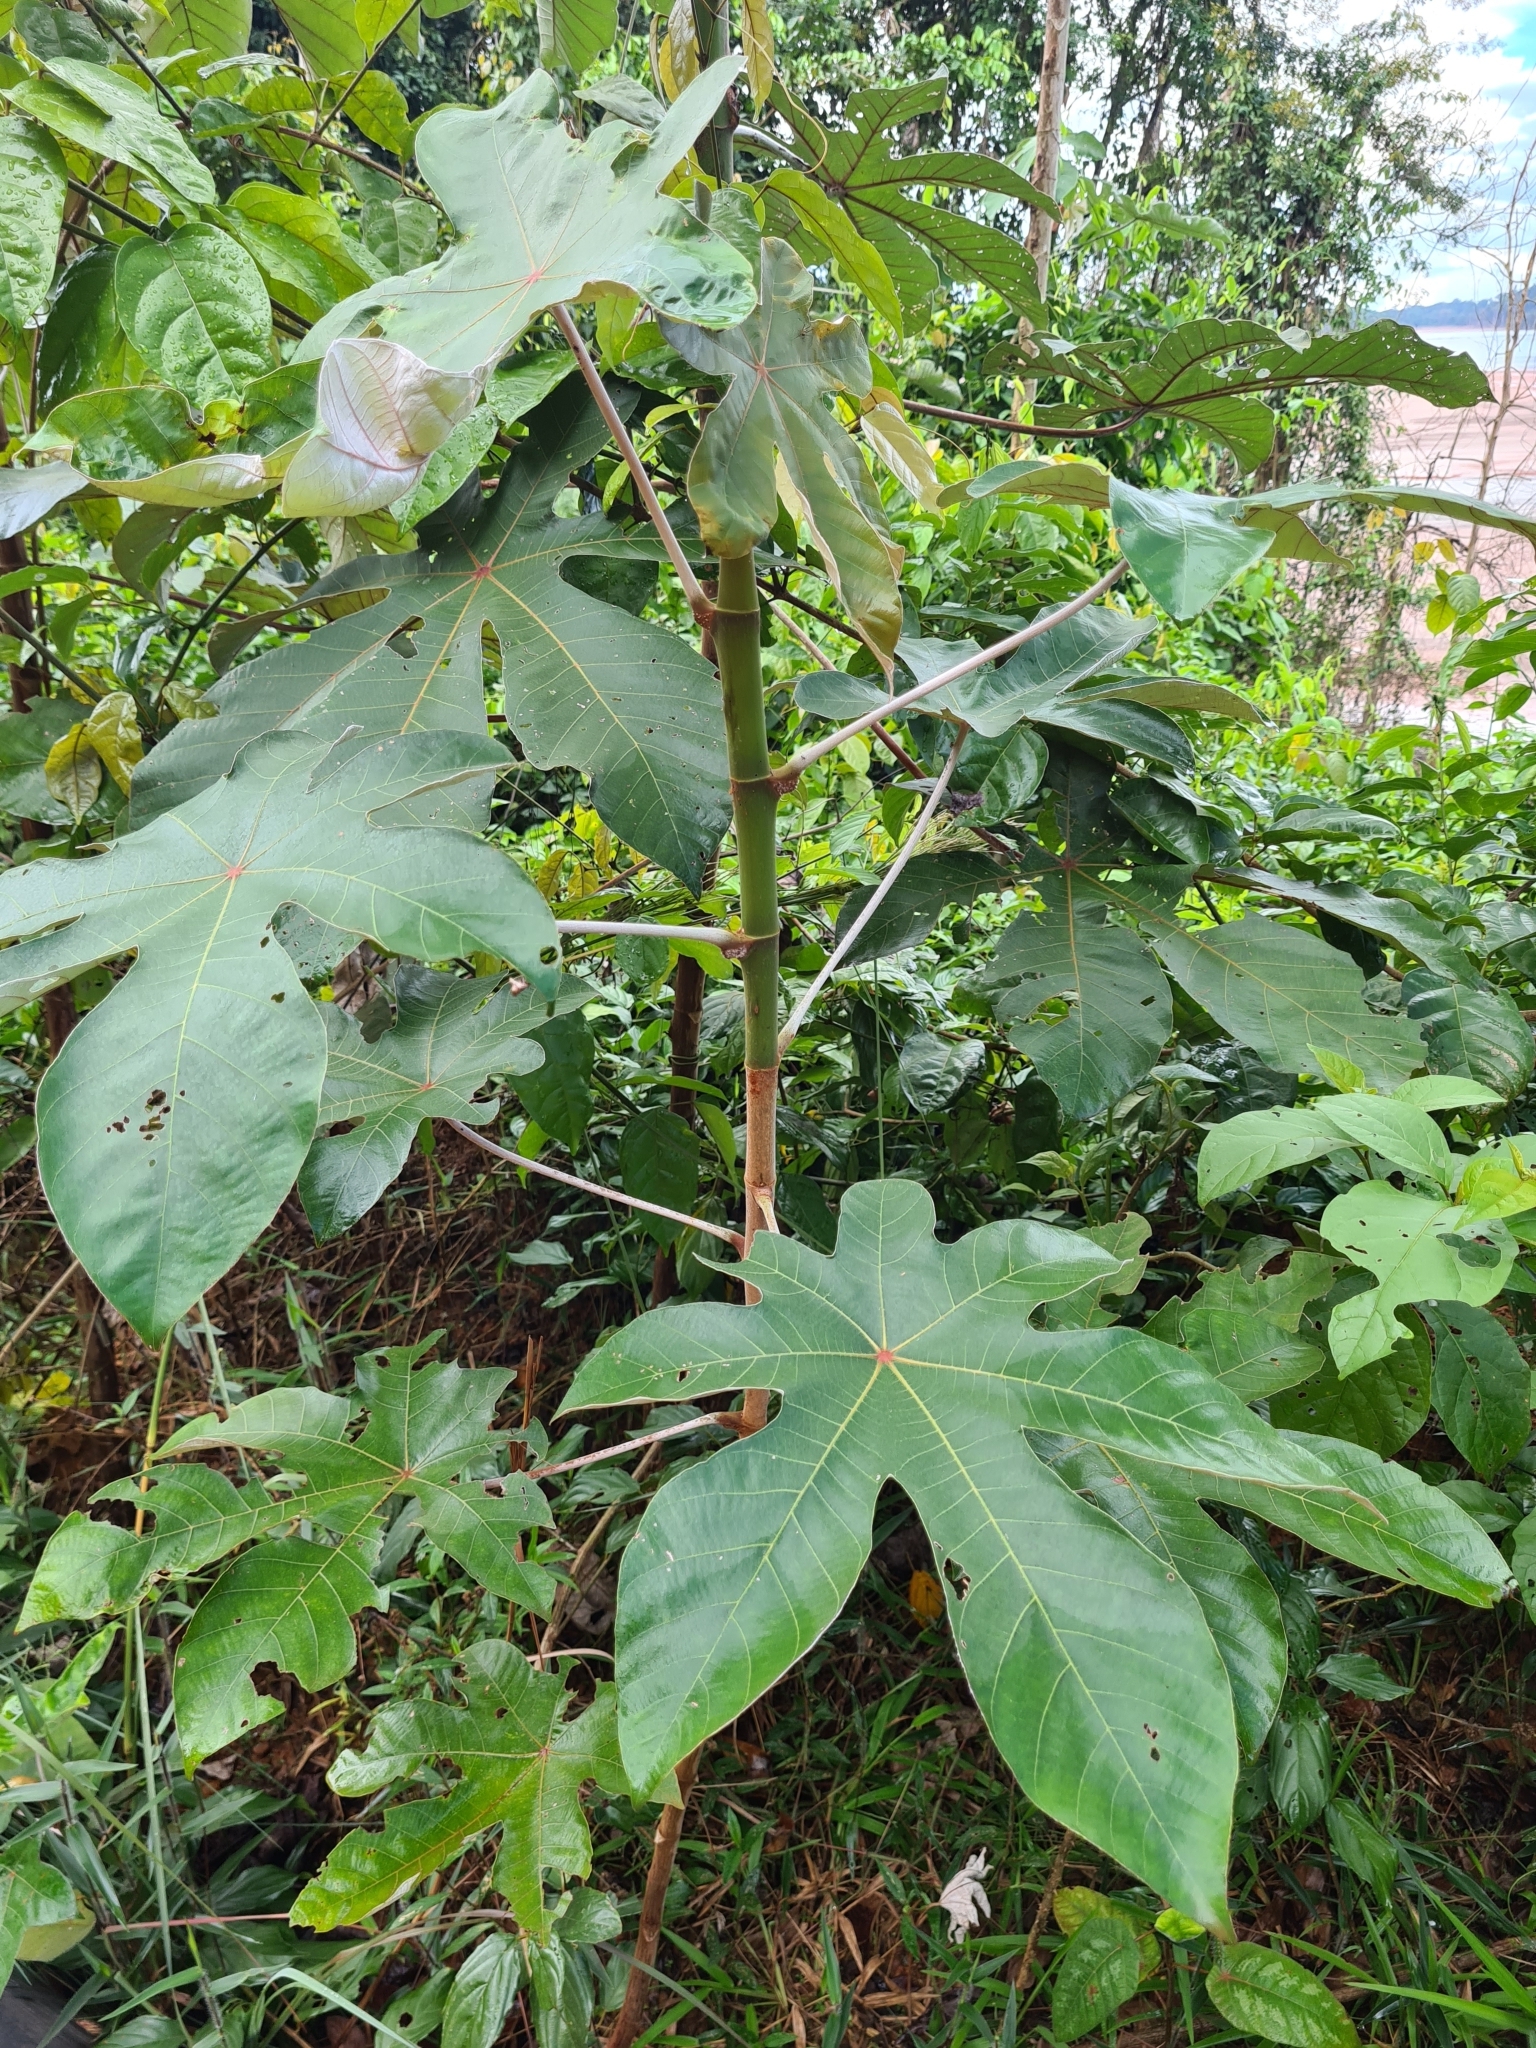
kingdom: Plantae
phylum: Tracheophyta
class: Magnoliopsida
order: Rosales
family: Urticaceae
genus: Cecropia
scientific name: Cecropia obtusa
